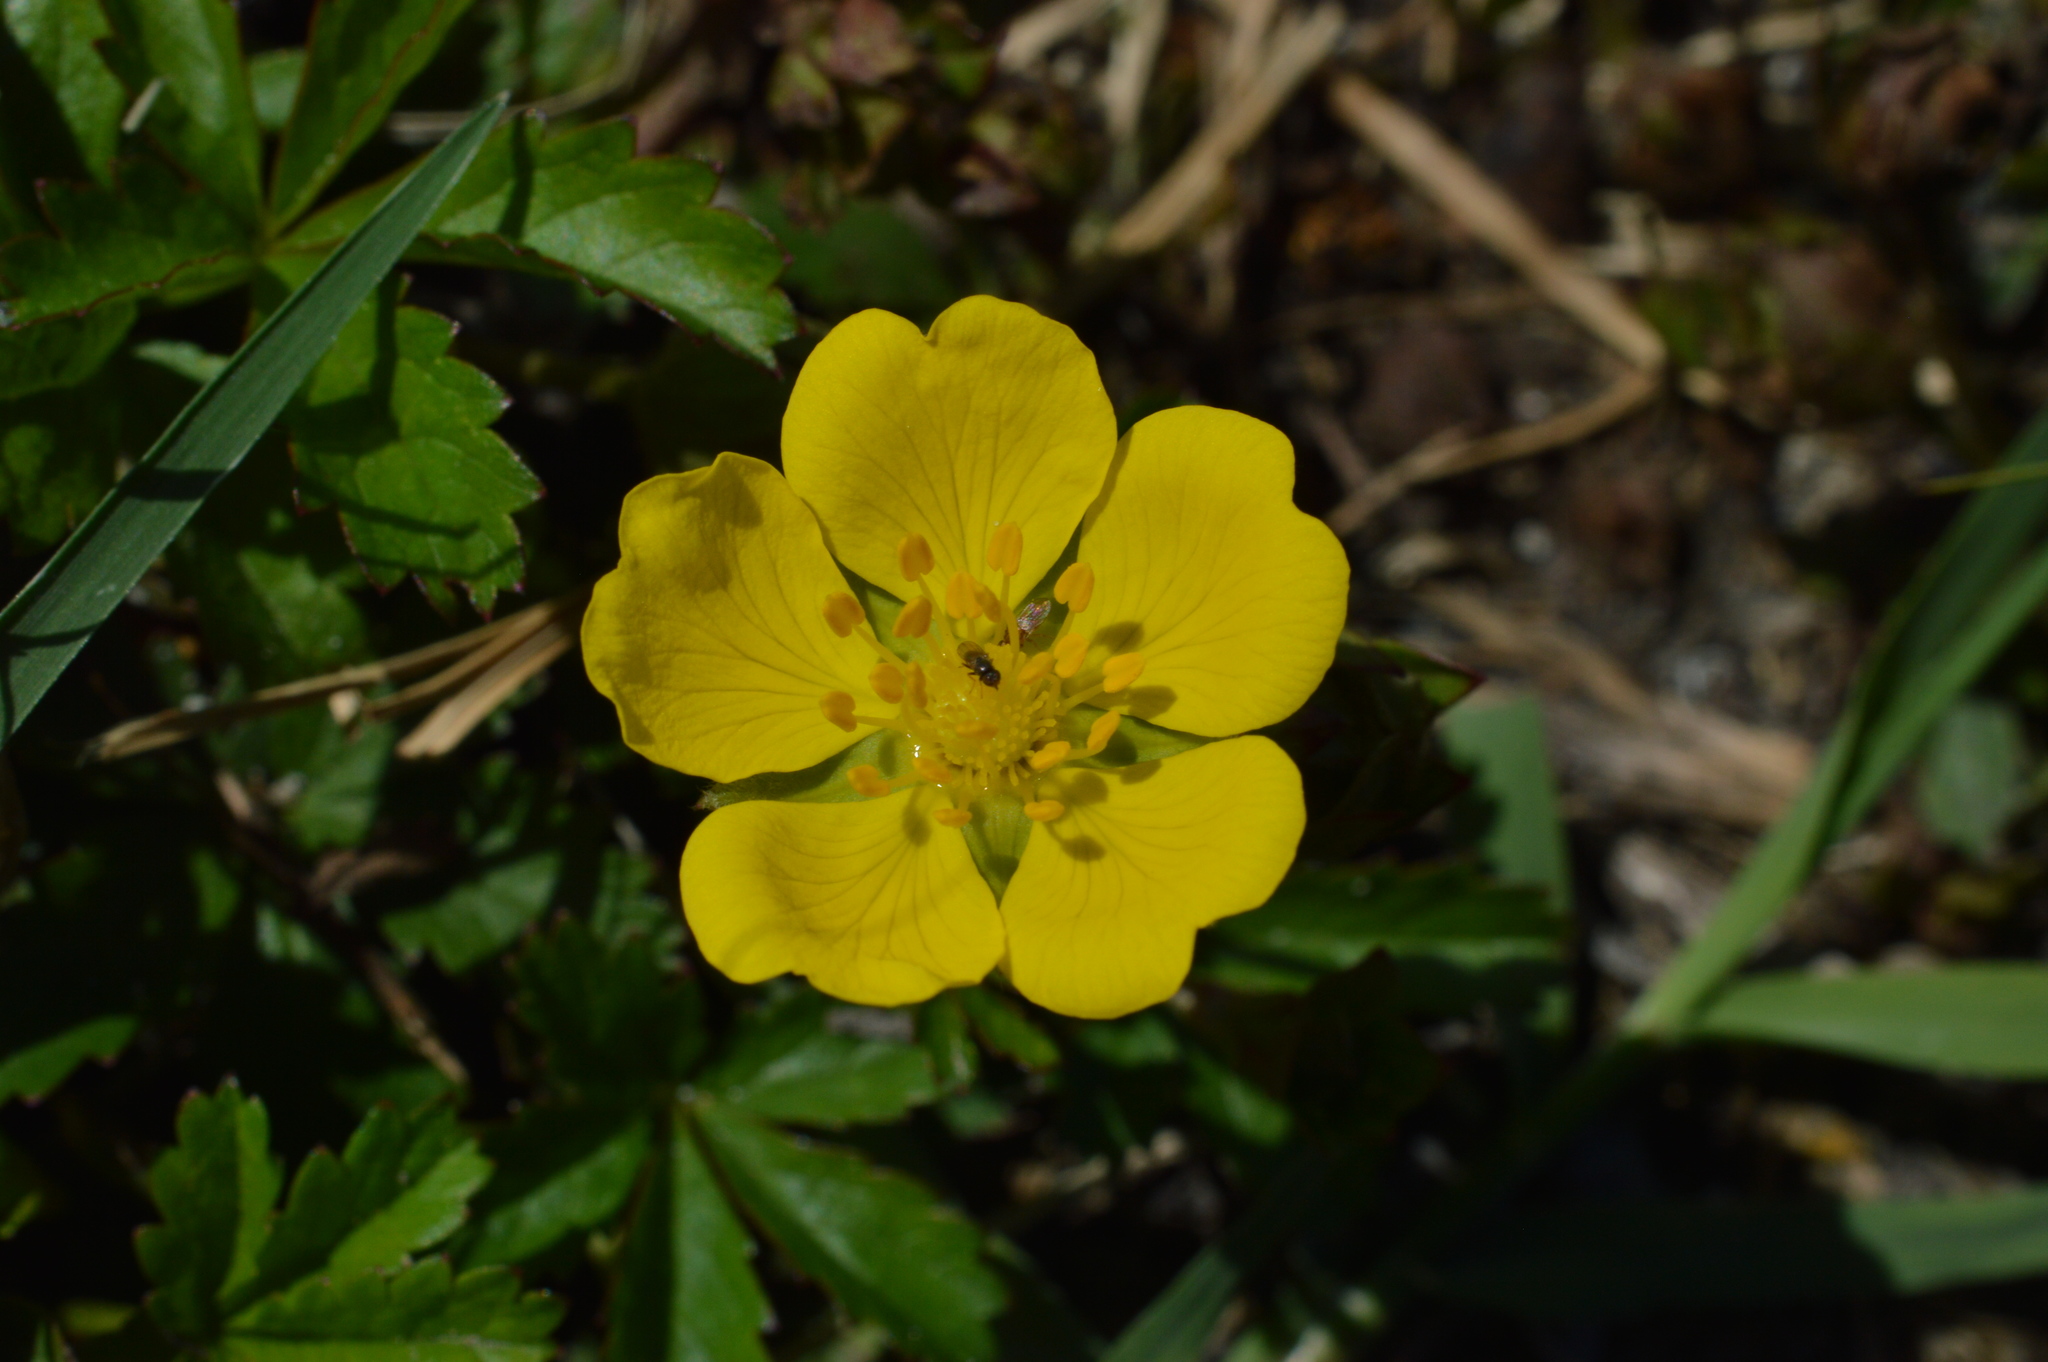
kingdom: Plantae
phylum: Tracheophyta
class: Magnoliopsida
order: Rosales
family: Rosaceae
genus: Potentilla
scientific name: Potentilla reptans
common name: Creeping cinquefoil
